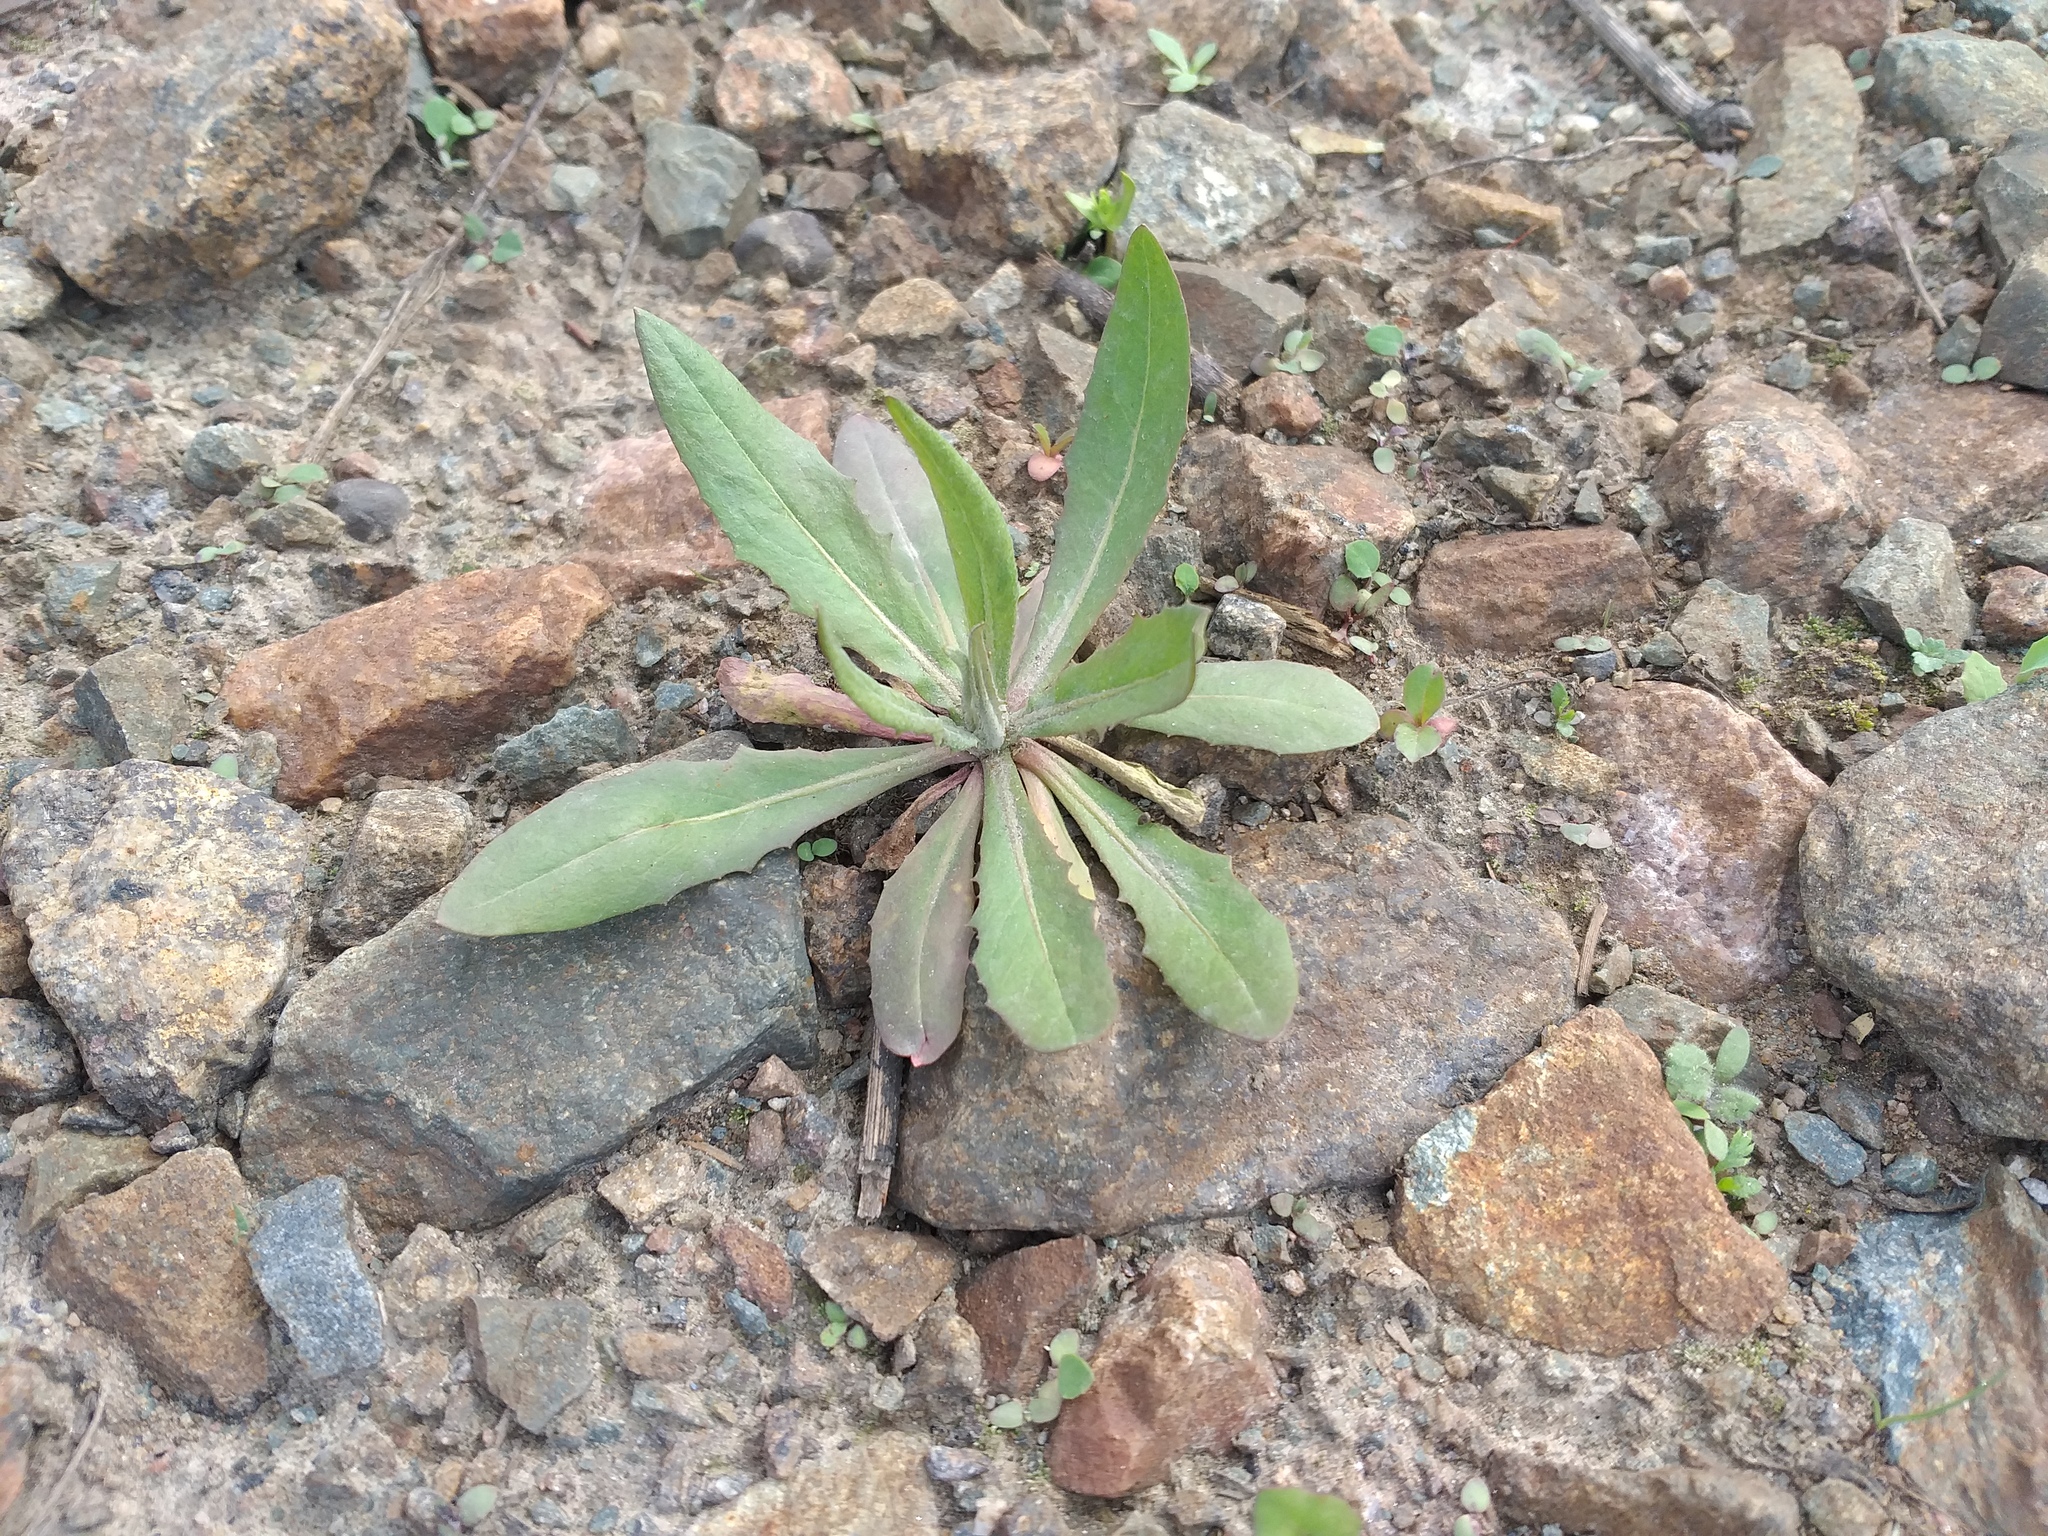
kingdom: Plantae
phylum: Tracheophyta
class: Magnoliopsida
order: Asterales
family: Asteraceae
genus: Crepis
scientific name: Crepis tectorum
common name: Narrow-leaved hawk's-beard
